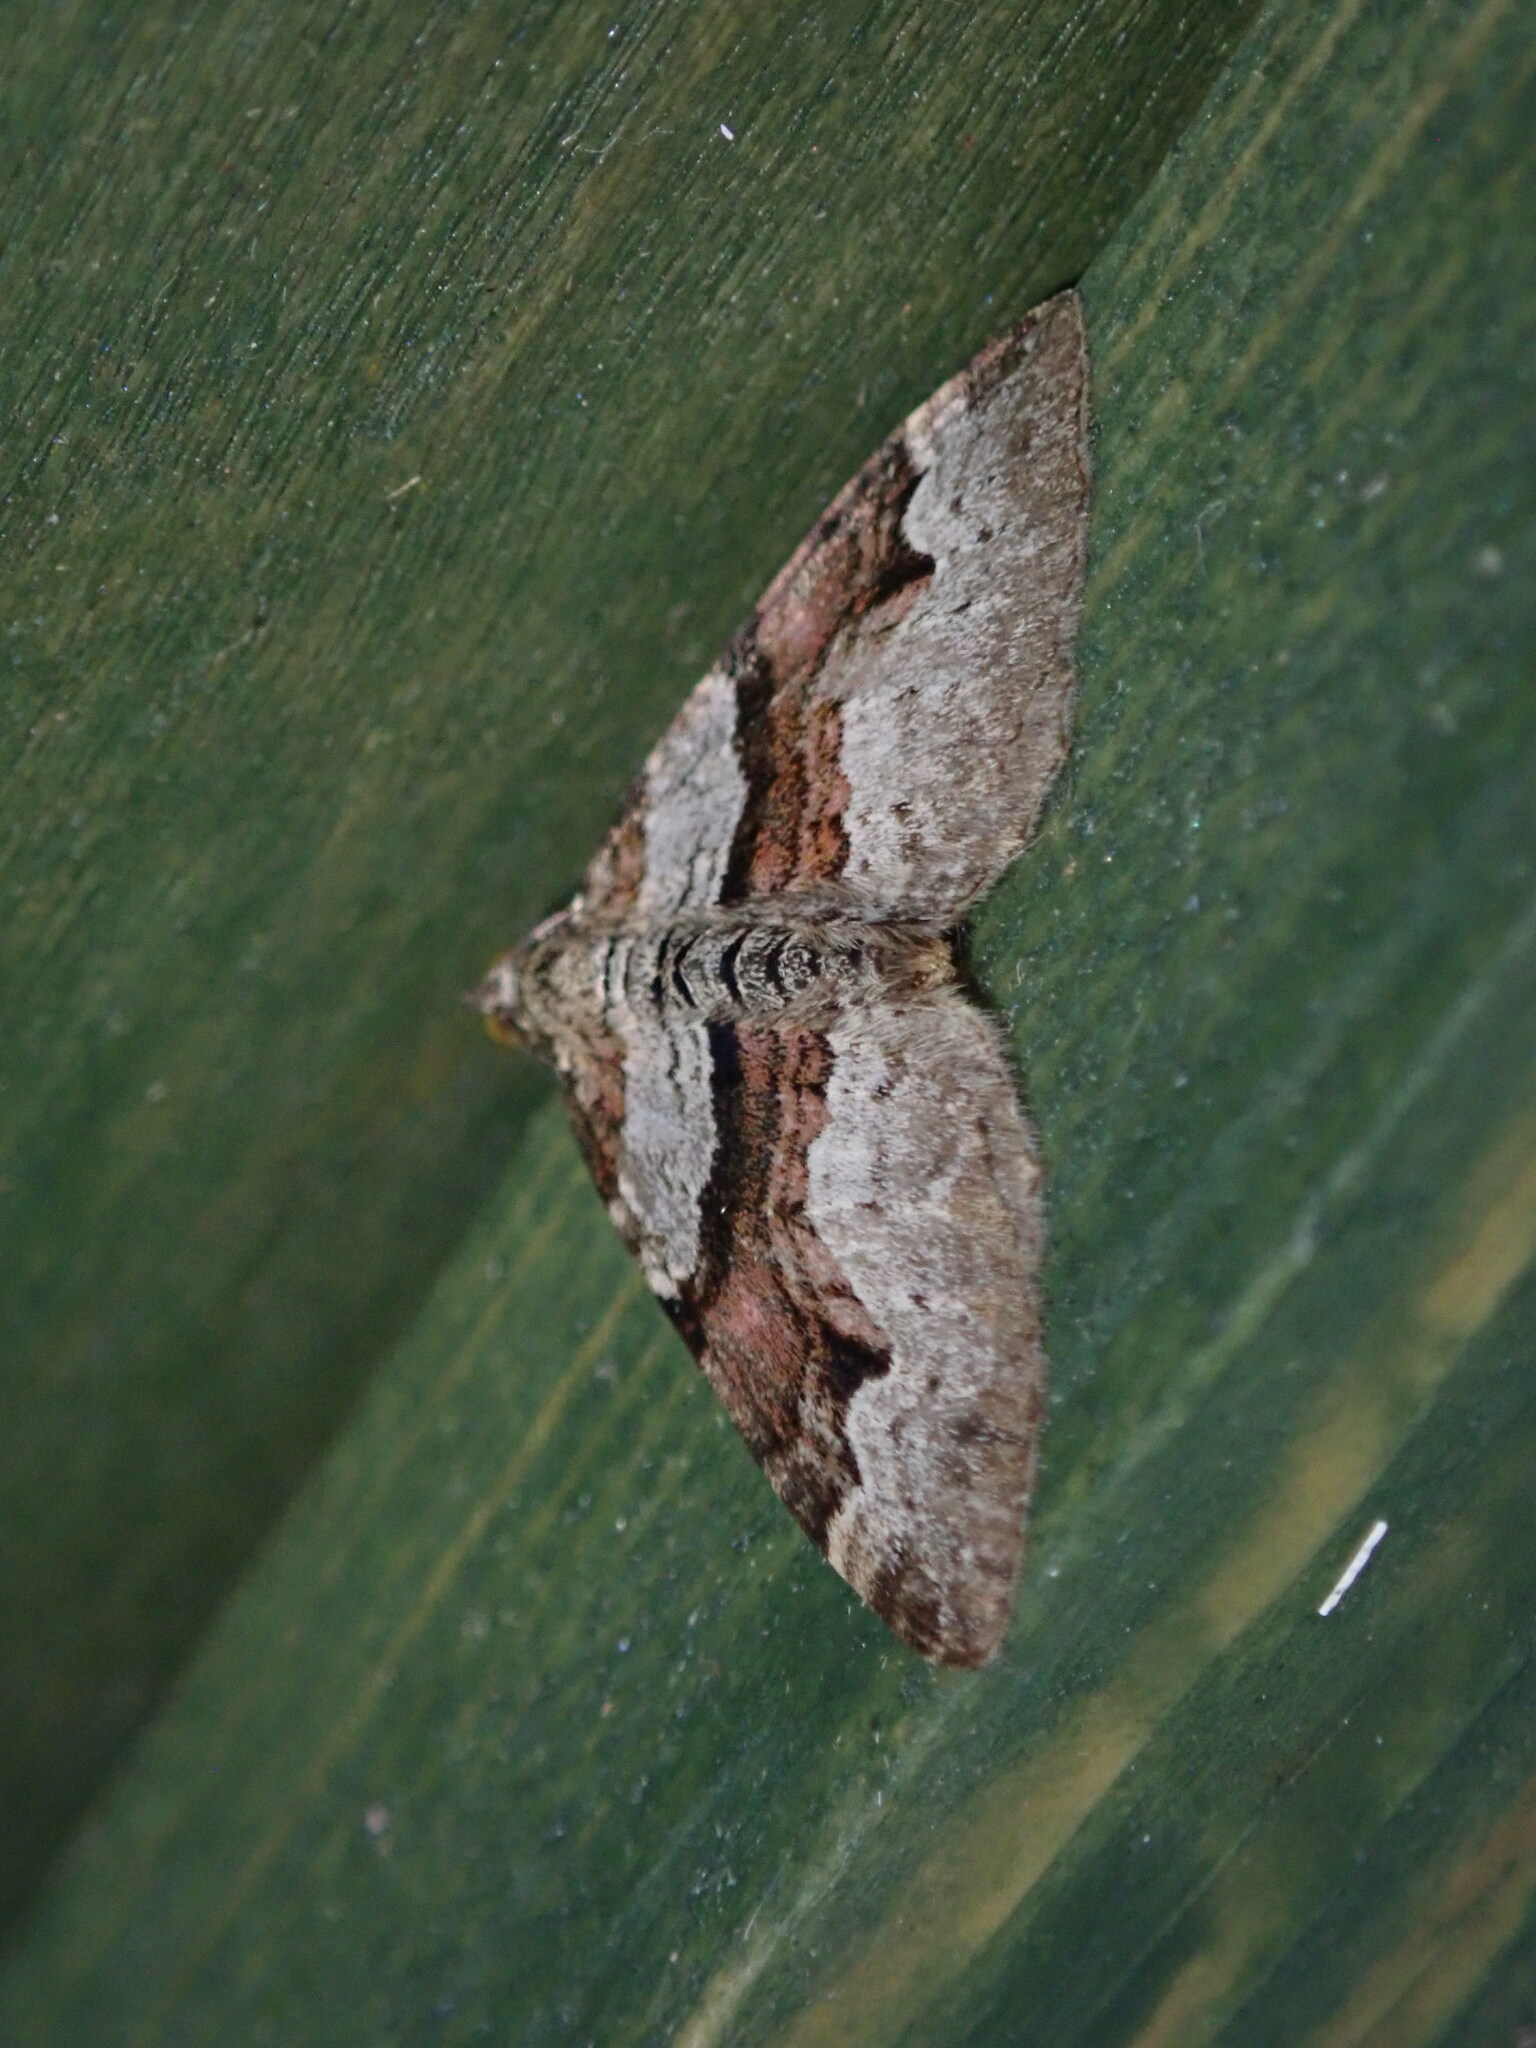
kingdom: Animalia
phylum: Arthropoda
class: Insecta
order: Lepidoptera
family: Geometridae
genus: Xanthorhoe
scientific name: Xanthorhoe designata
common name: Flame carpet
